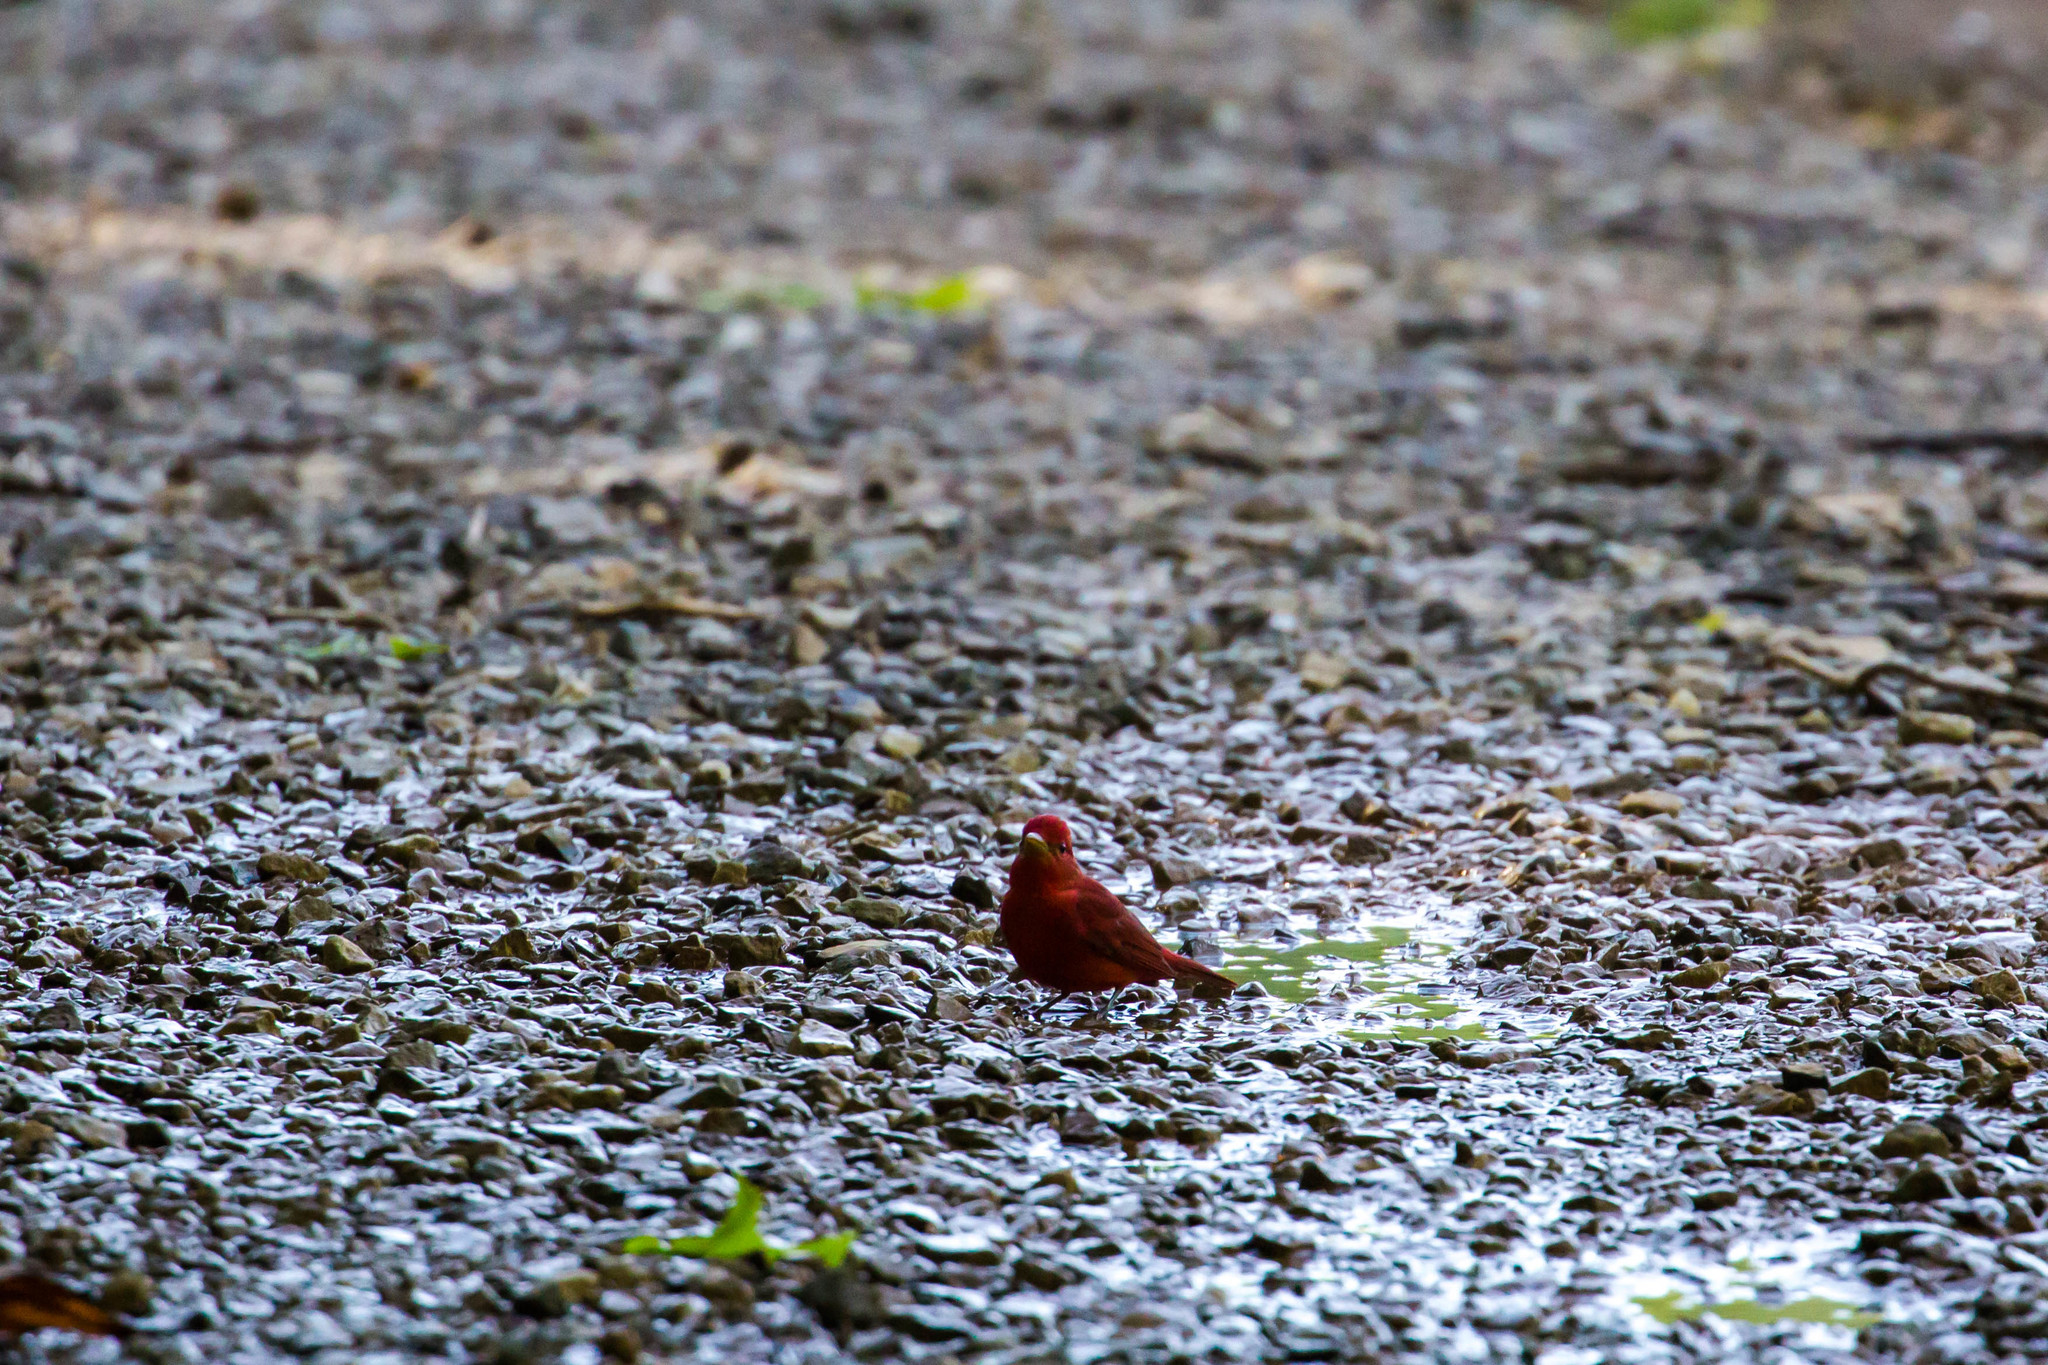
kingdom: Animalia
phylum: Chordata
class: Aves
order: Passeriformes
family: Cardinalidae
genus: Piranga
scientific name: Piranga rubra
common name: Summer tanager
